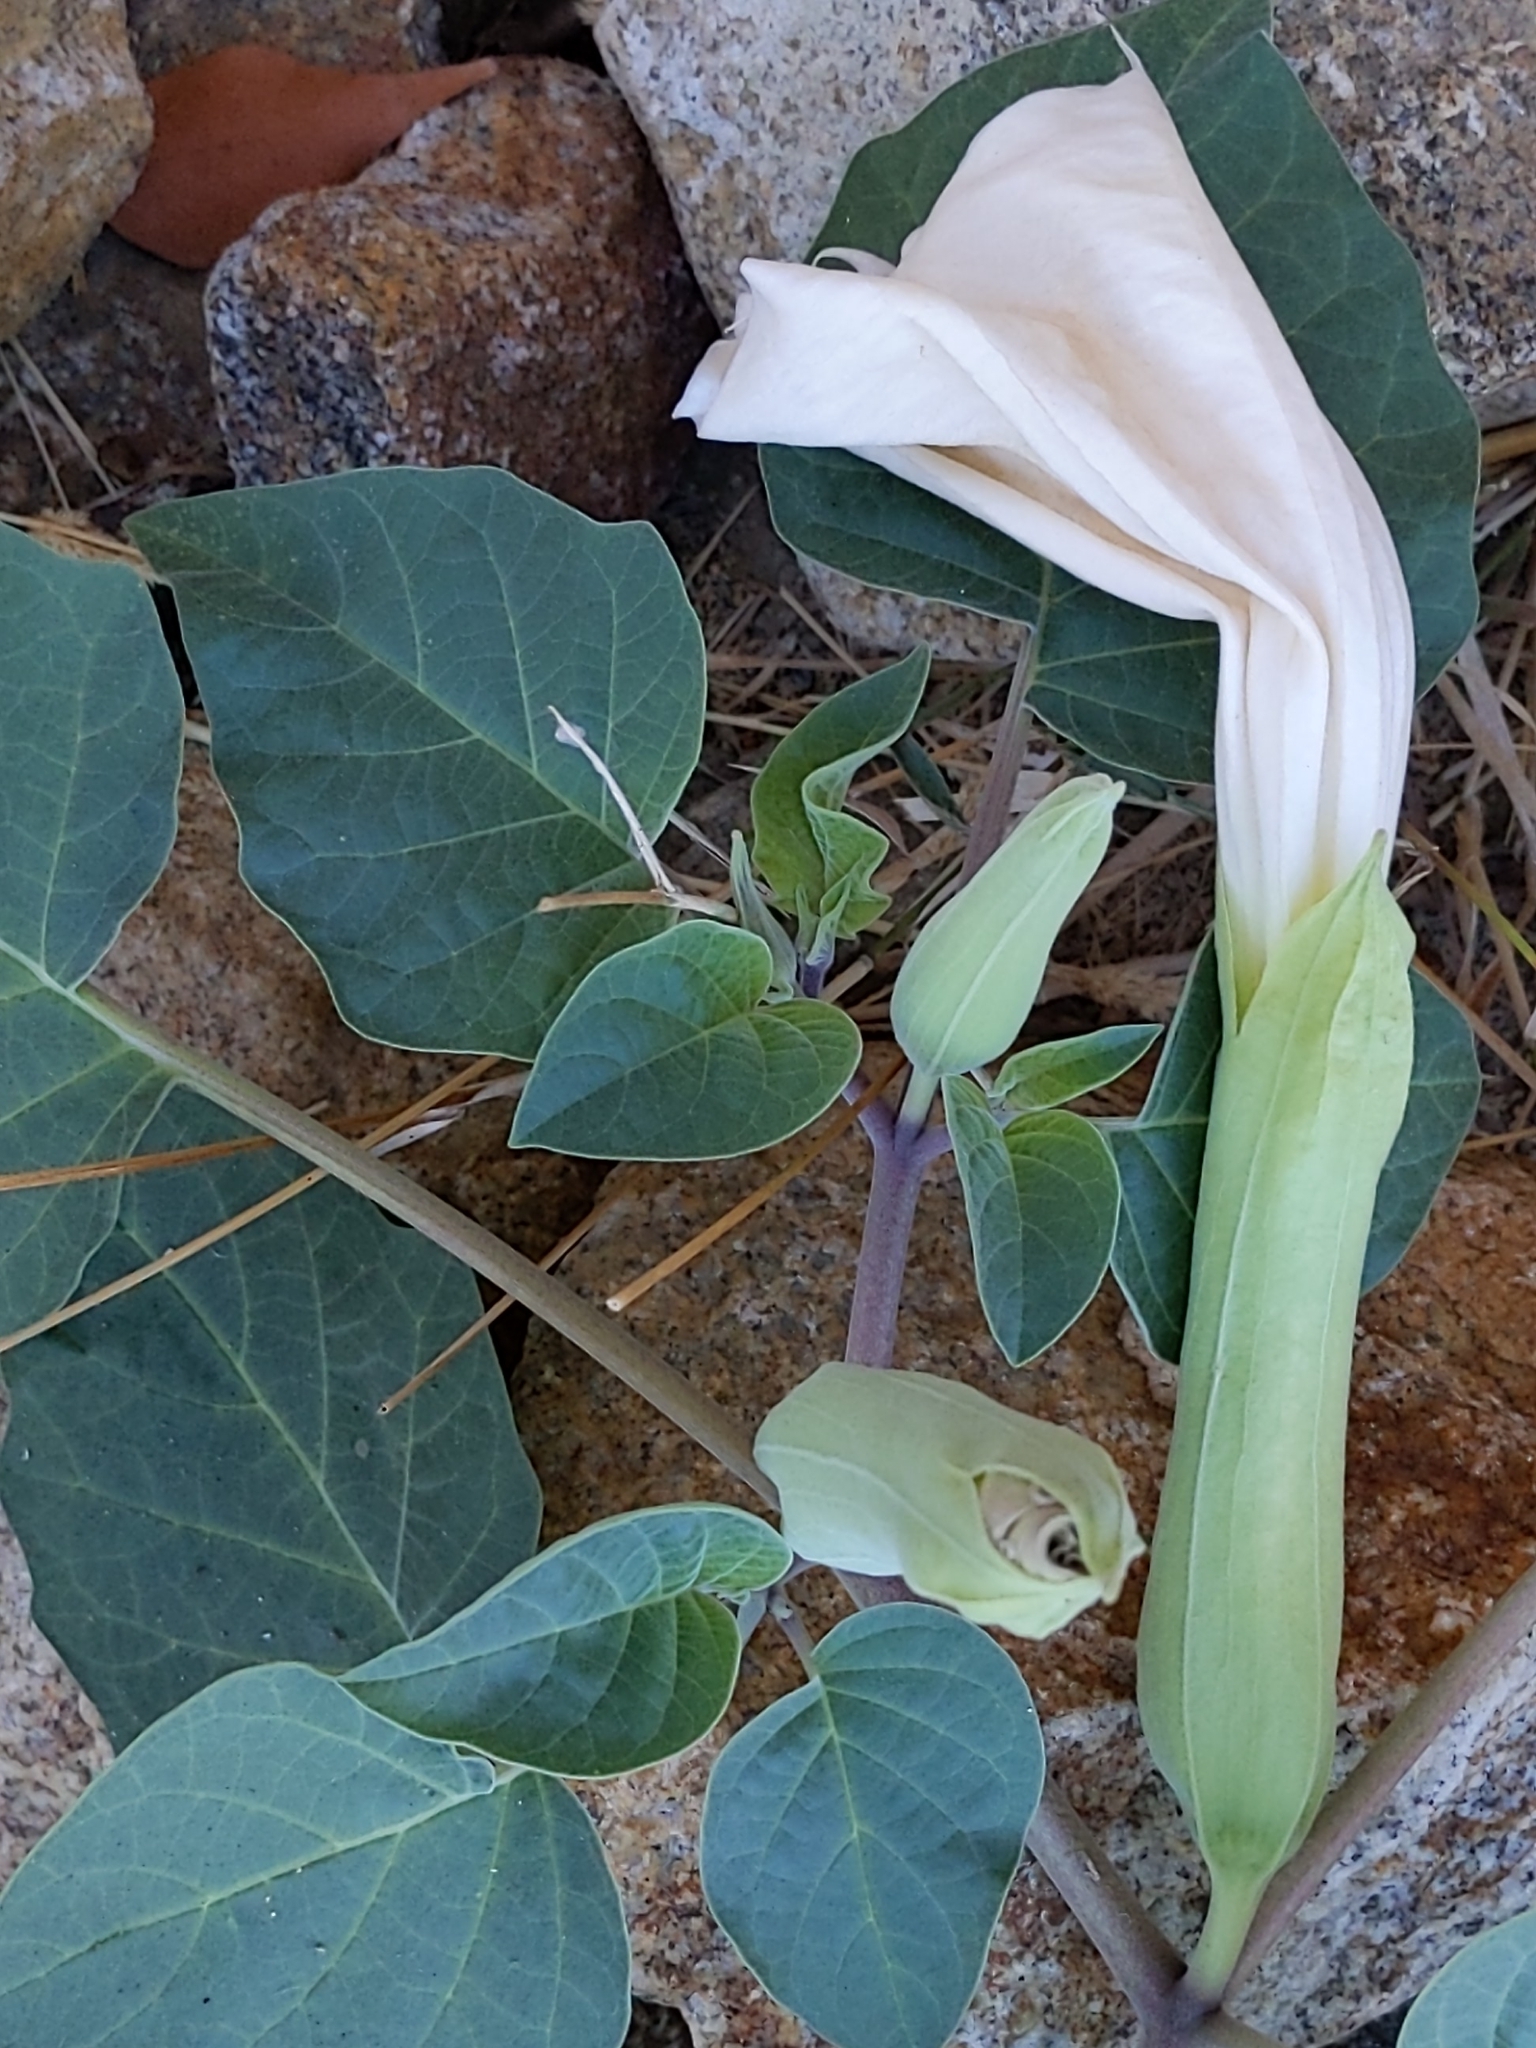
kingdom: Plantae
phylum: Tracheophyta
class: Magnoliopsida
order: Solanales
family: Solanaceae
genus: Datura
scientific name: Datura wrightii
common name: Sacred thorn-apple
